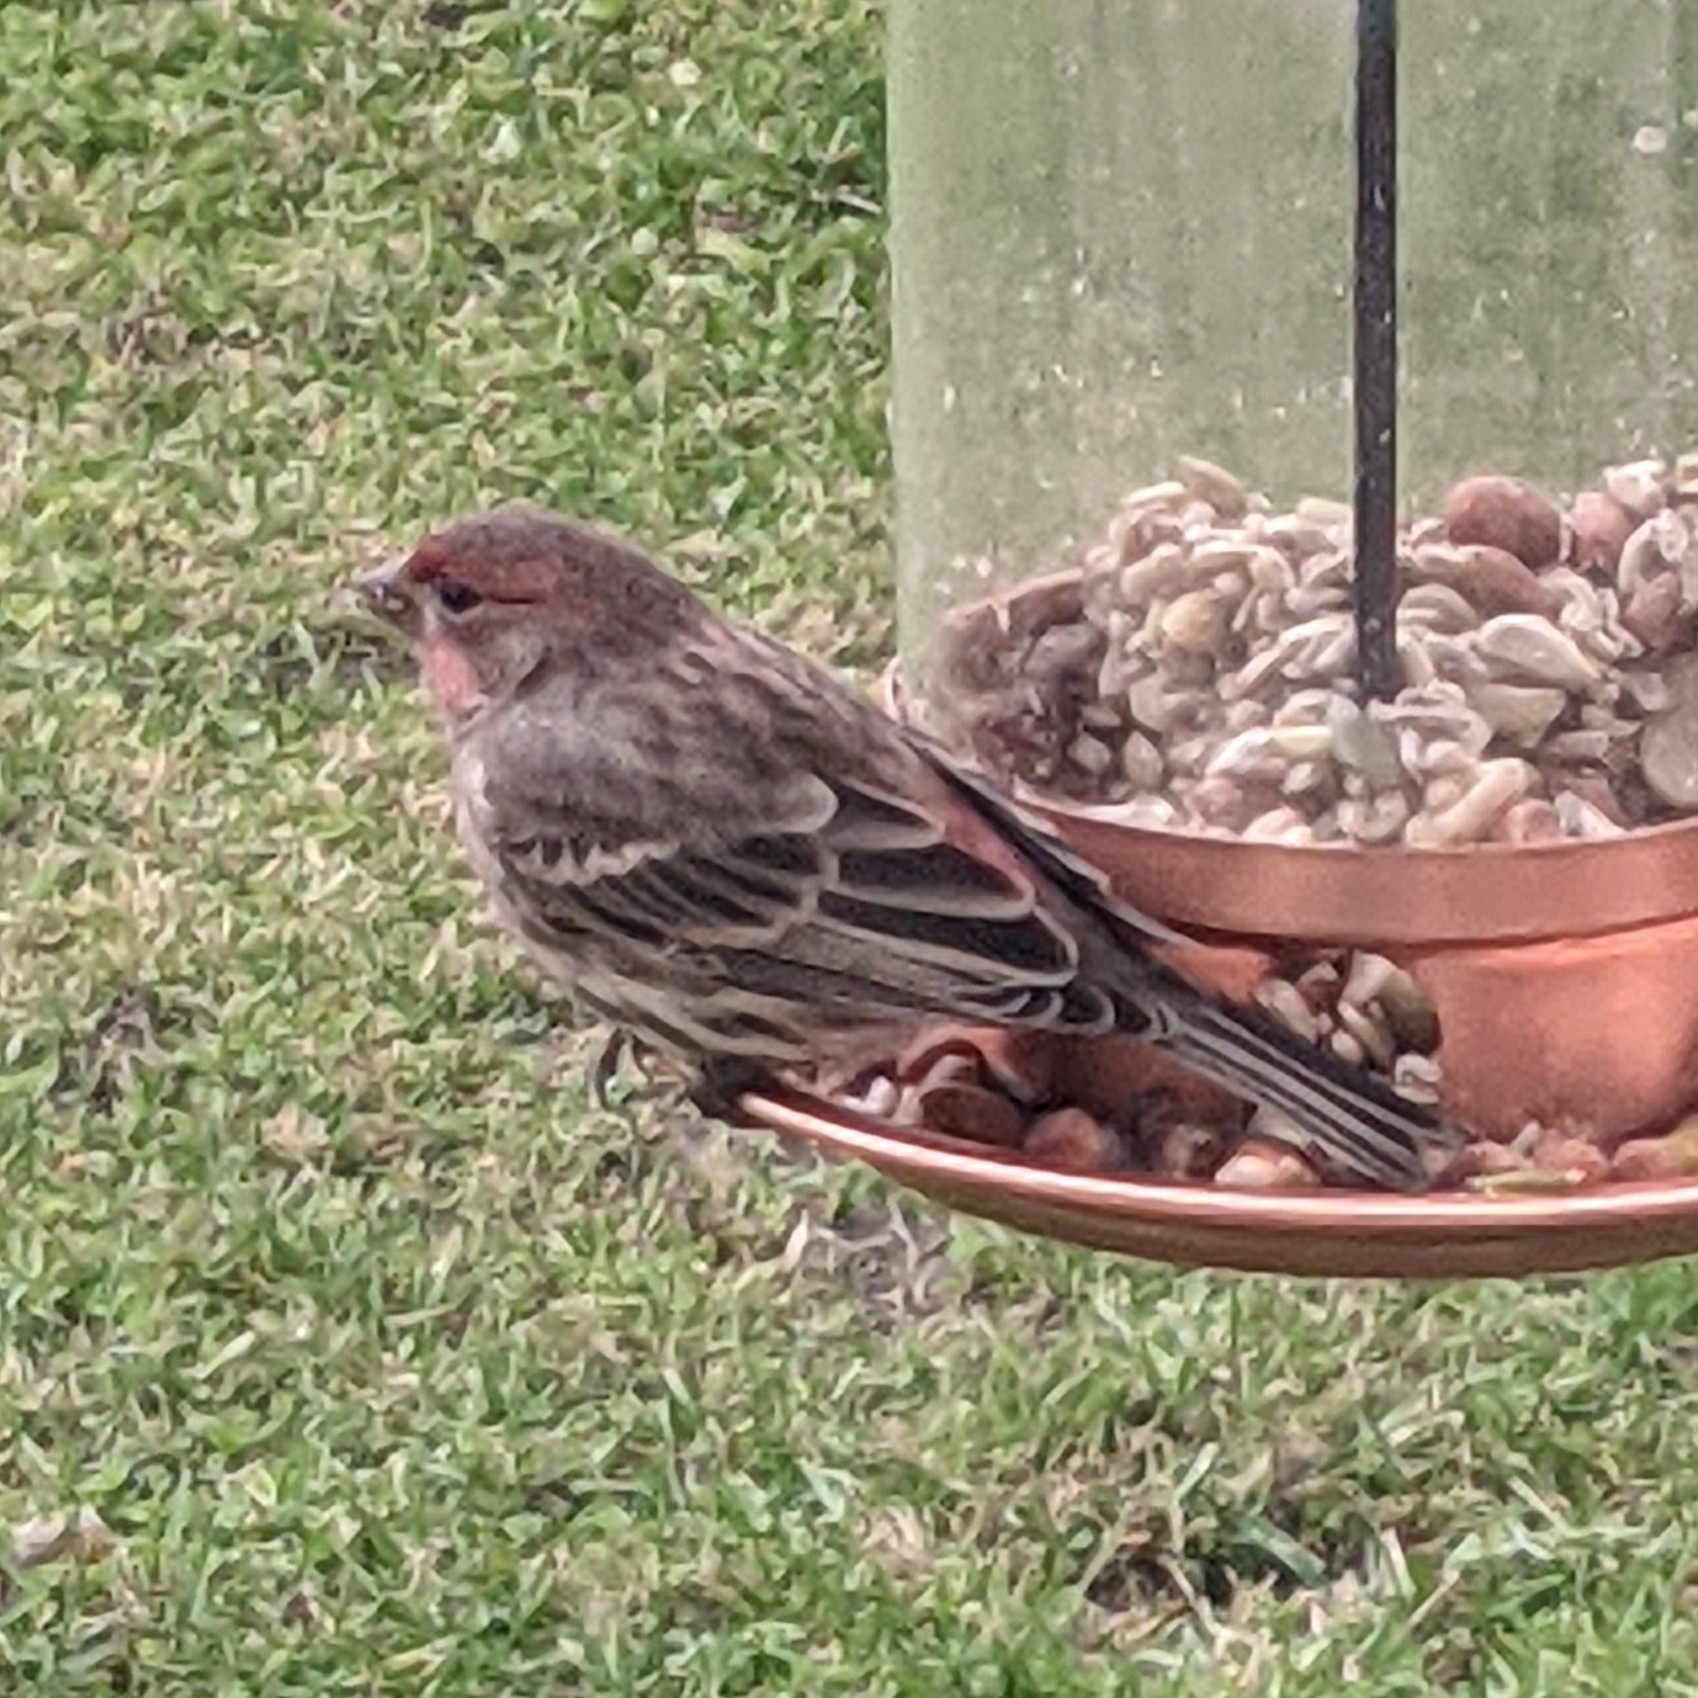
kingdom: Animalia
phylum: Chordata
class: Aves
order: Passeriformes
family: Fringillidae
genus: Haemorhous
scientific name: Haemorhous mexicanus
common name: House finch
